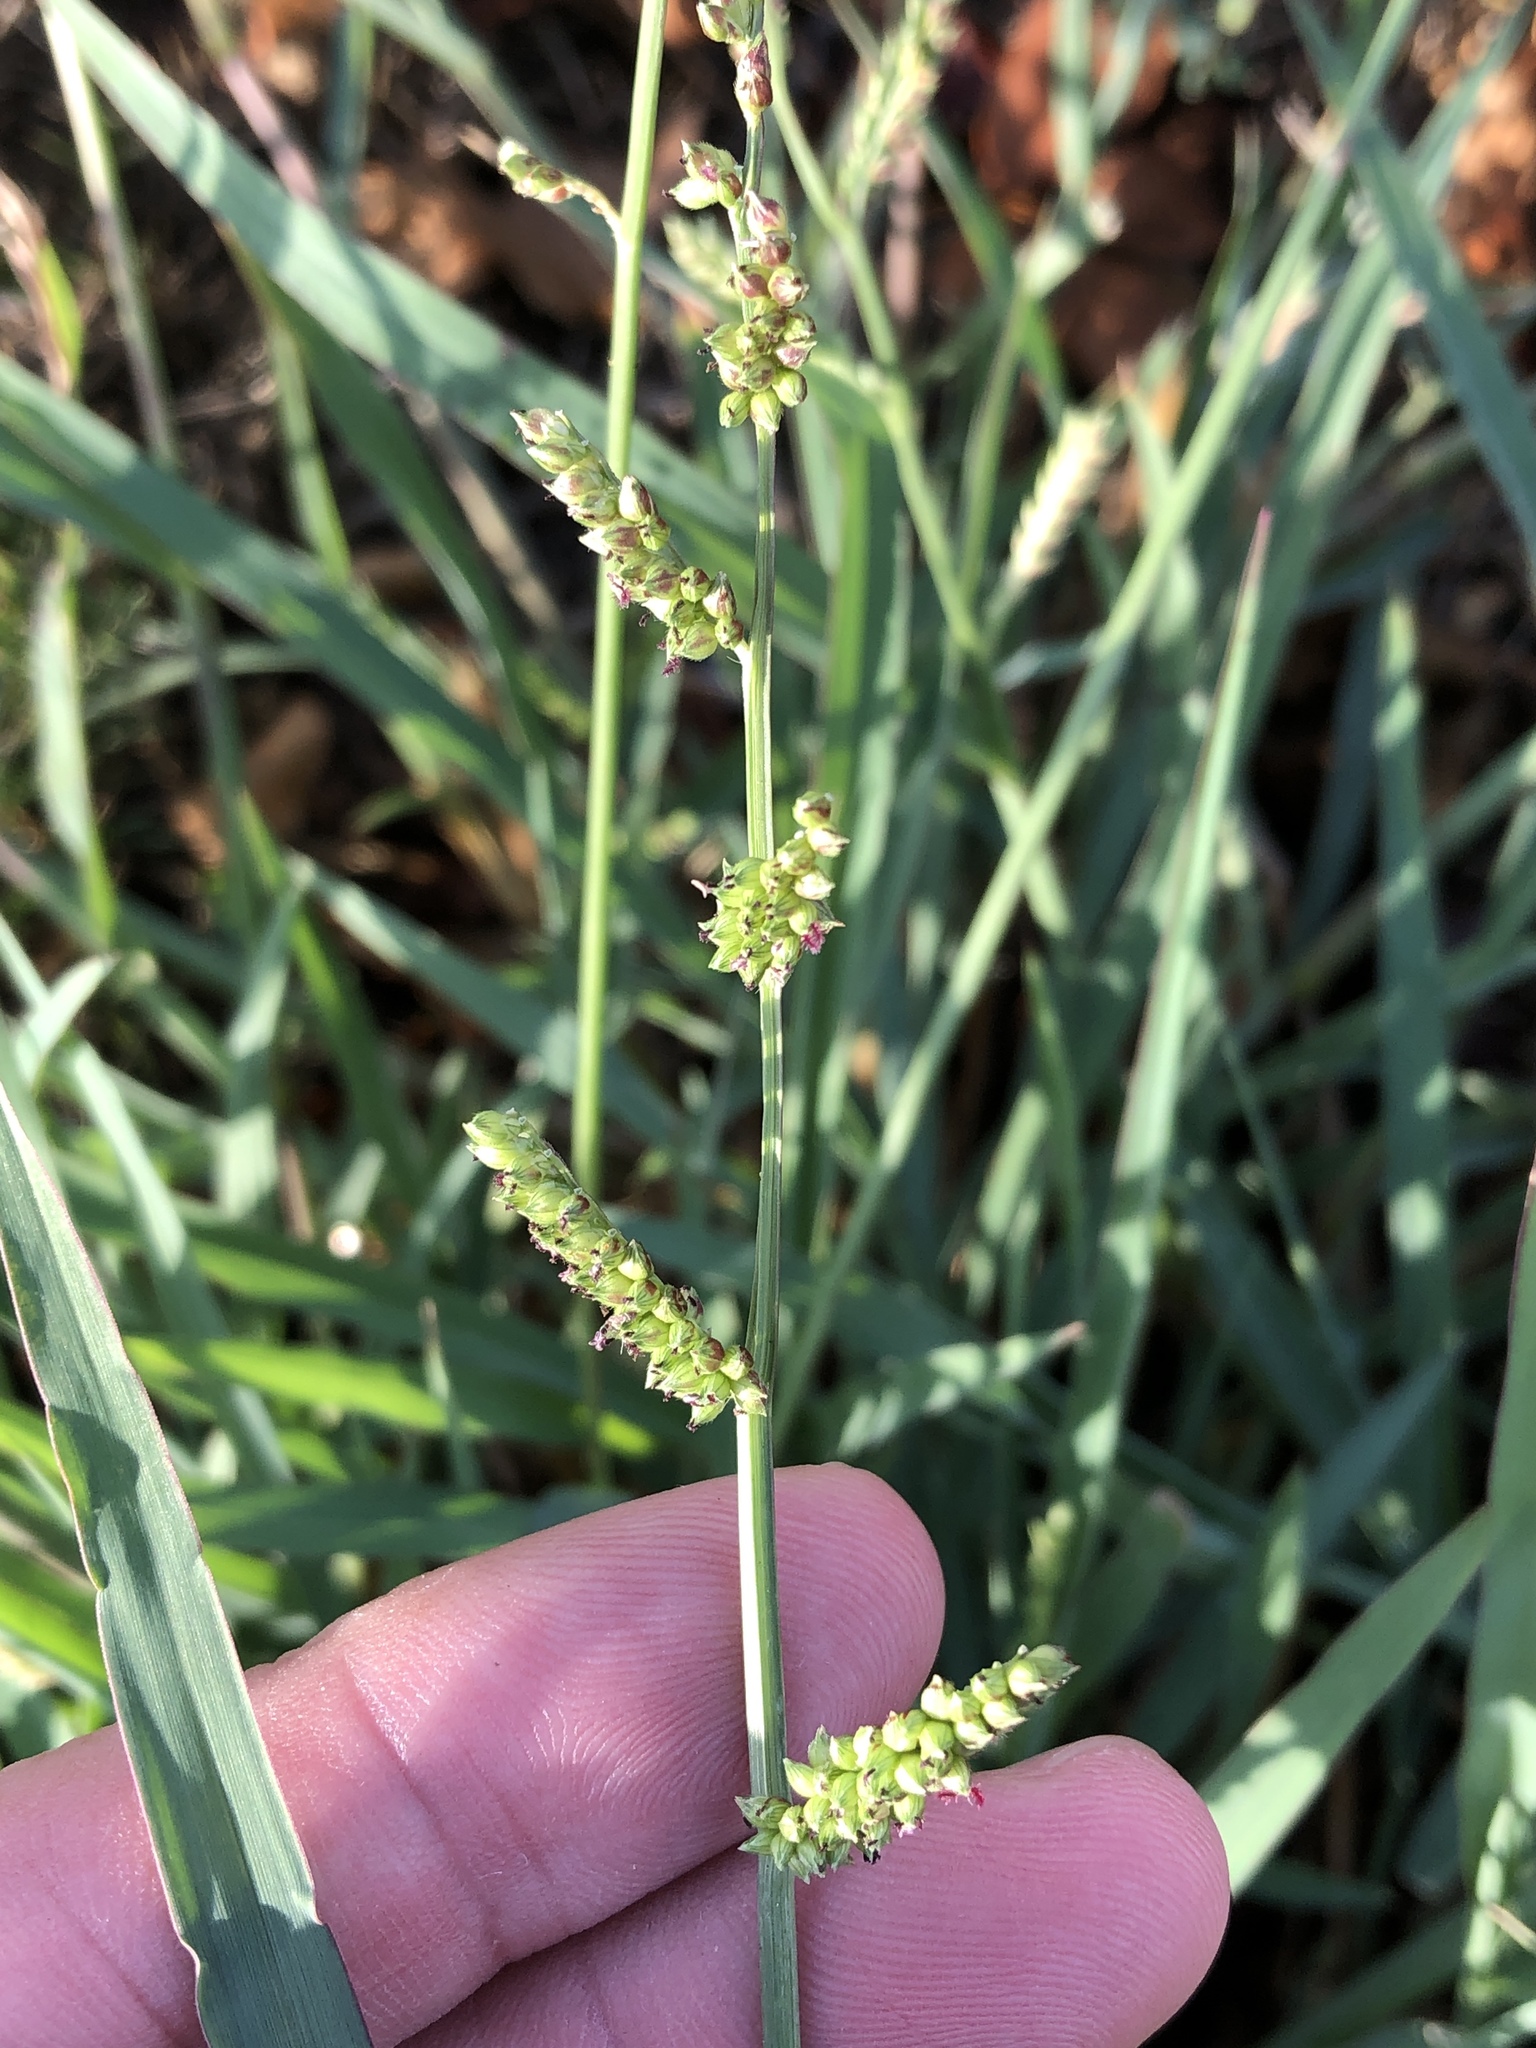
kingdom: Plantae
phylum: Tracheophyta
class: Liliopsida
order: Poales
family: Poaceae
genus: Echinochloa
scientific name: Echinochloa colonum
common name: Jungle rice
